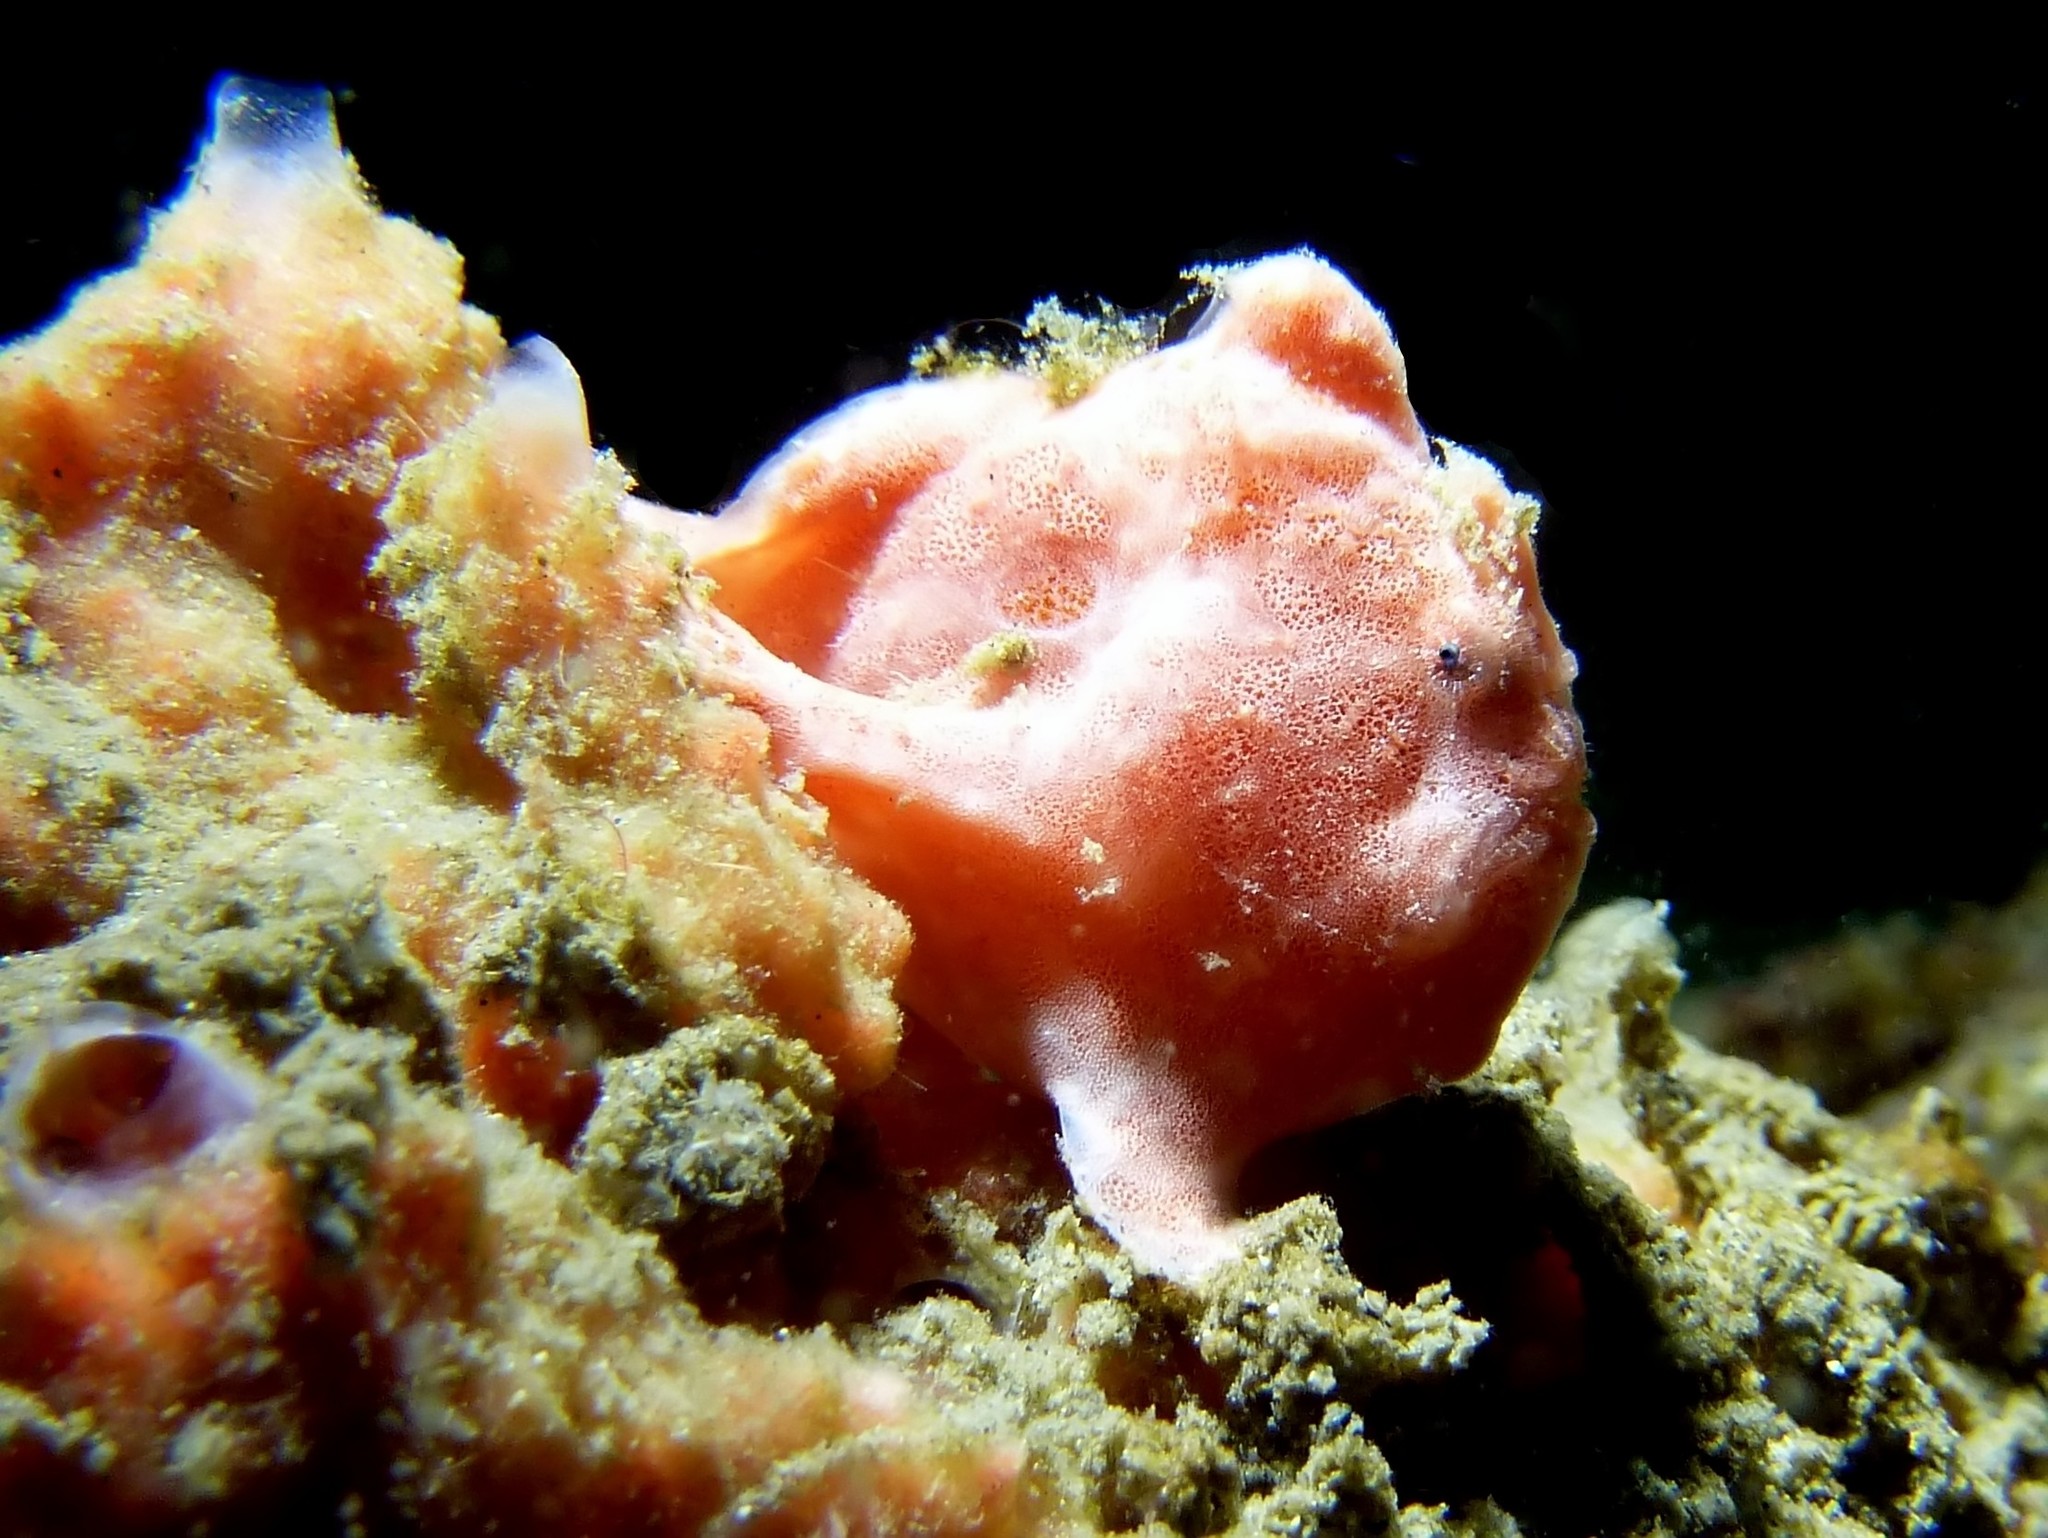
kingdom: Animalia
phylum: Chordata
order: Lophiiformes
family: Antennariidae
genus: Antennarius
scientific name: Antennarius pictus
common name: Painted frogfish
